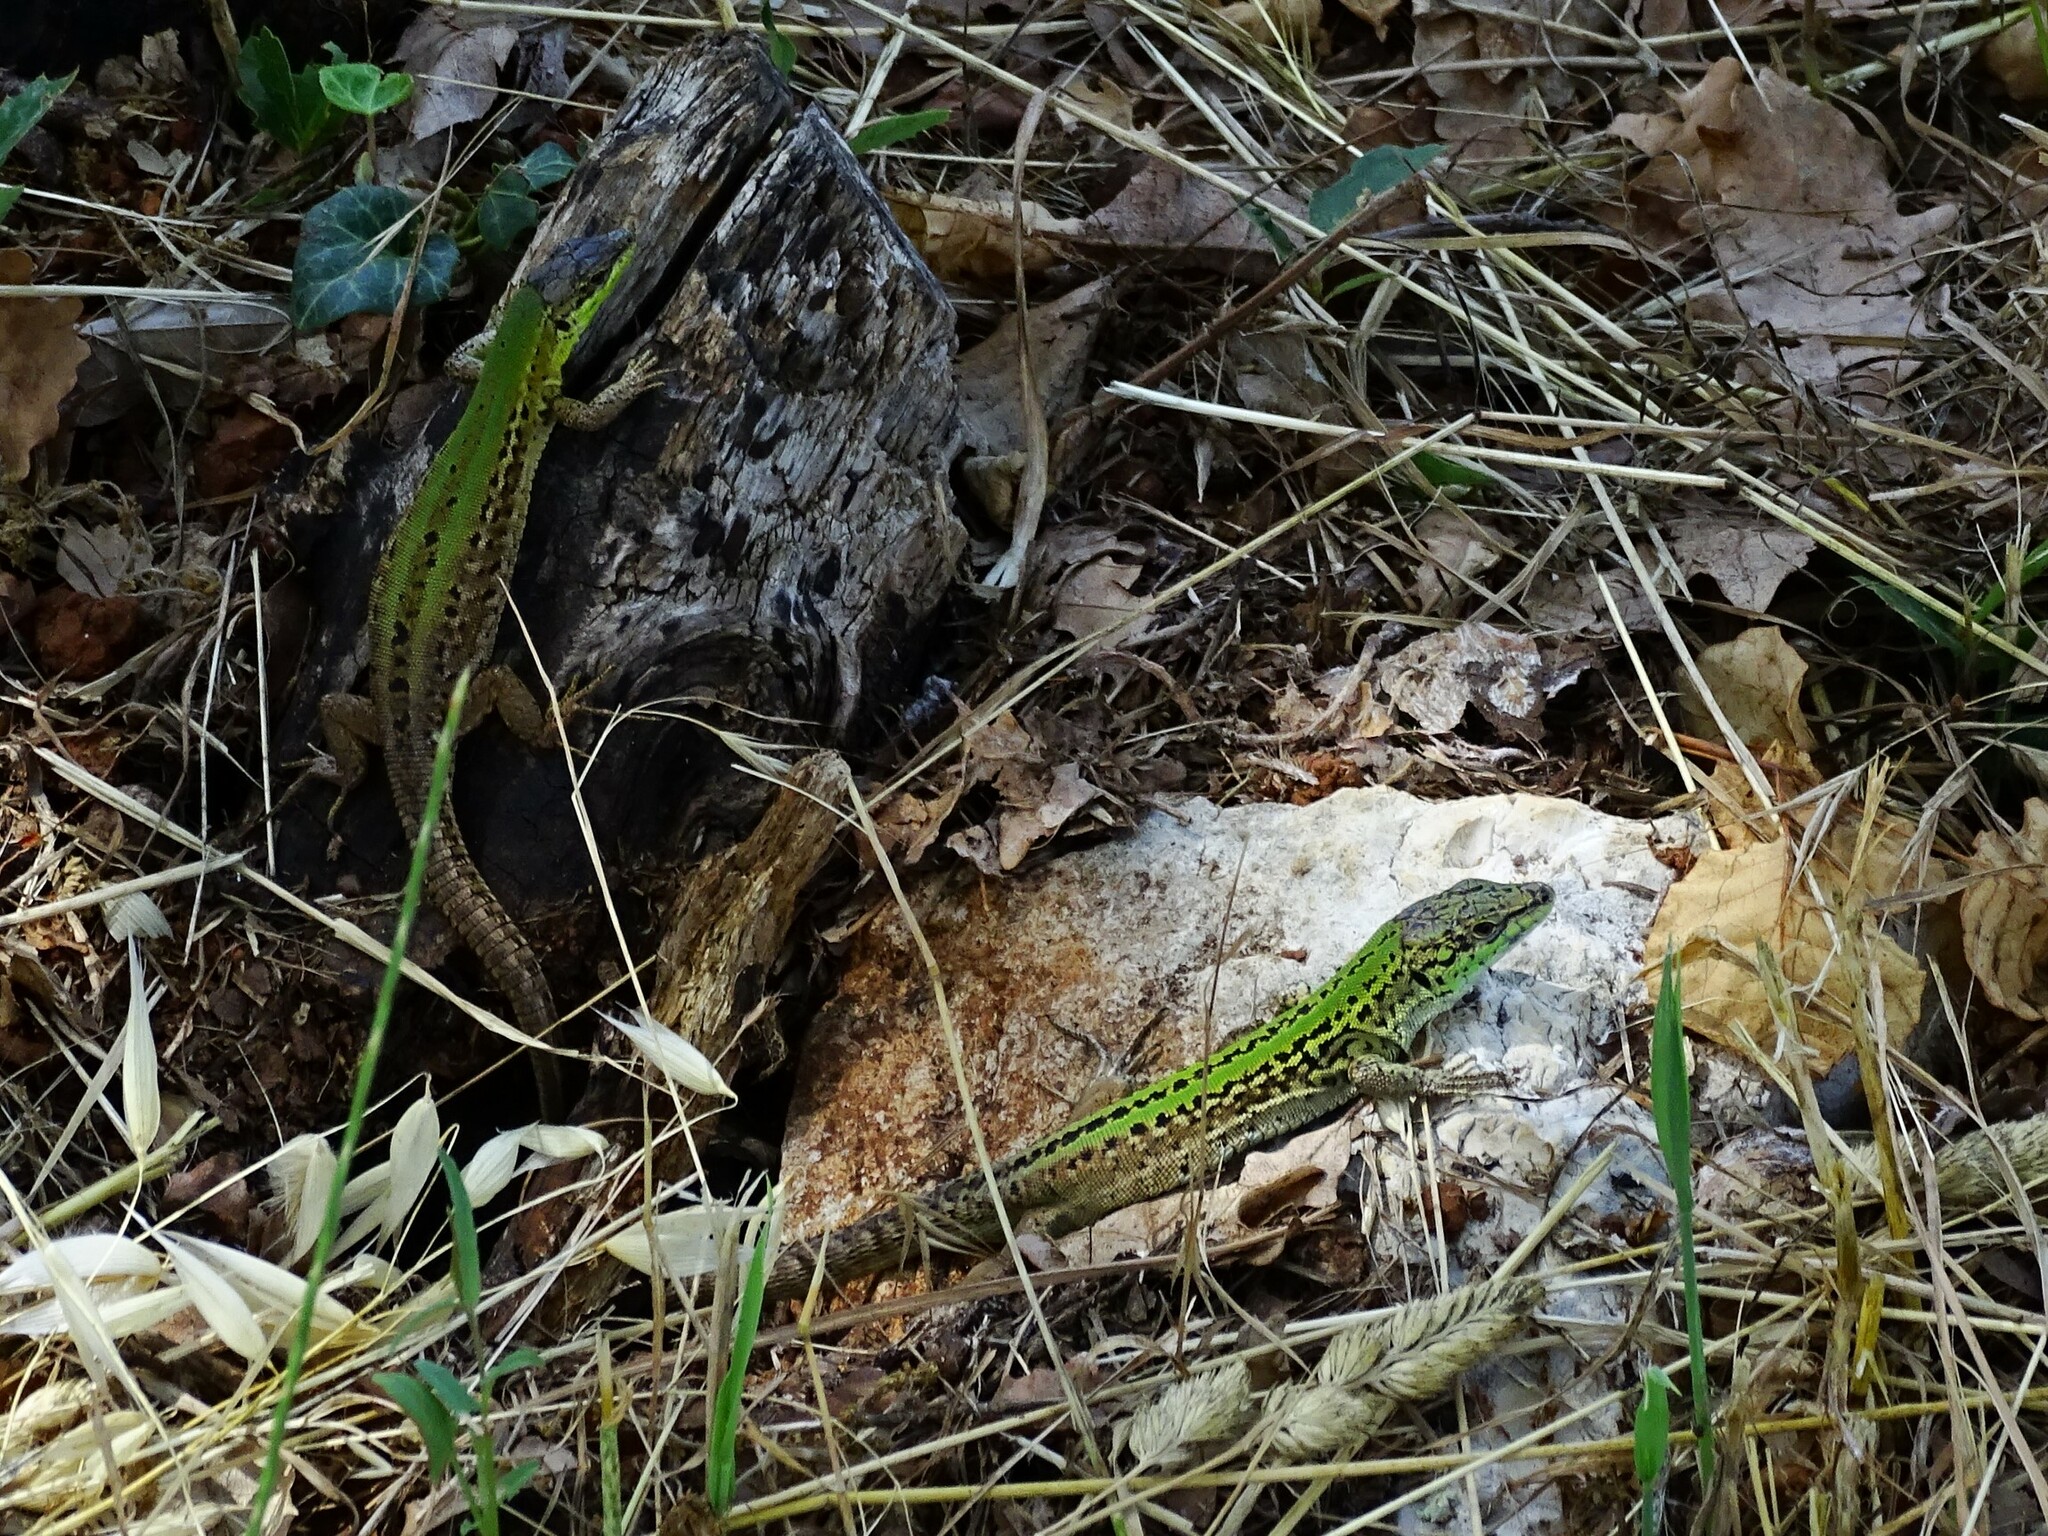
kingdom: Animalia
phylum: Chordata
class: Squamata
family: Lacertidae
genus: Podarcis
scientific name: Podarcis siculus
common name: Italian wall lizard
